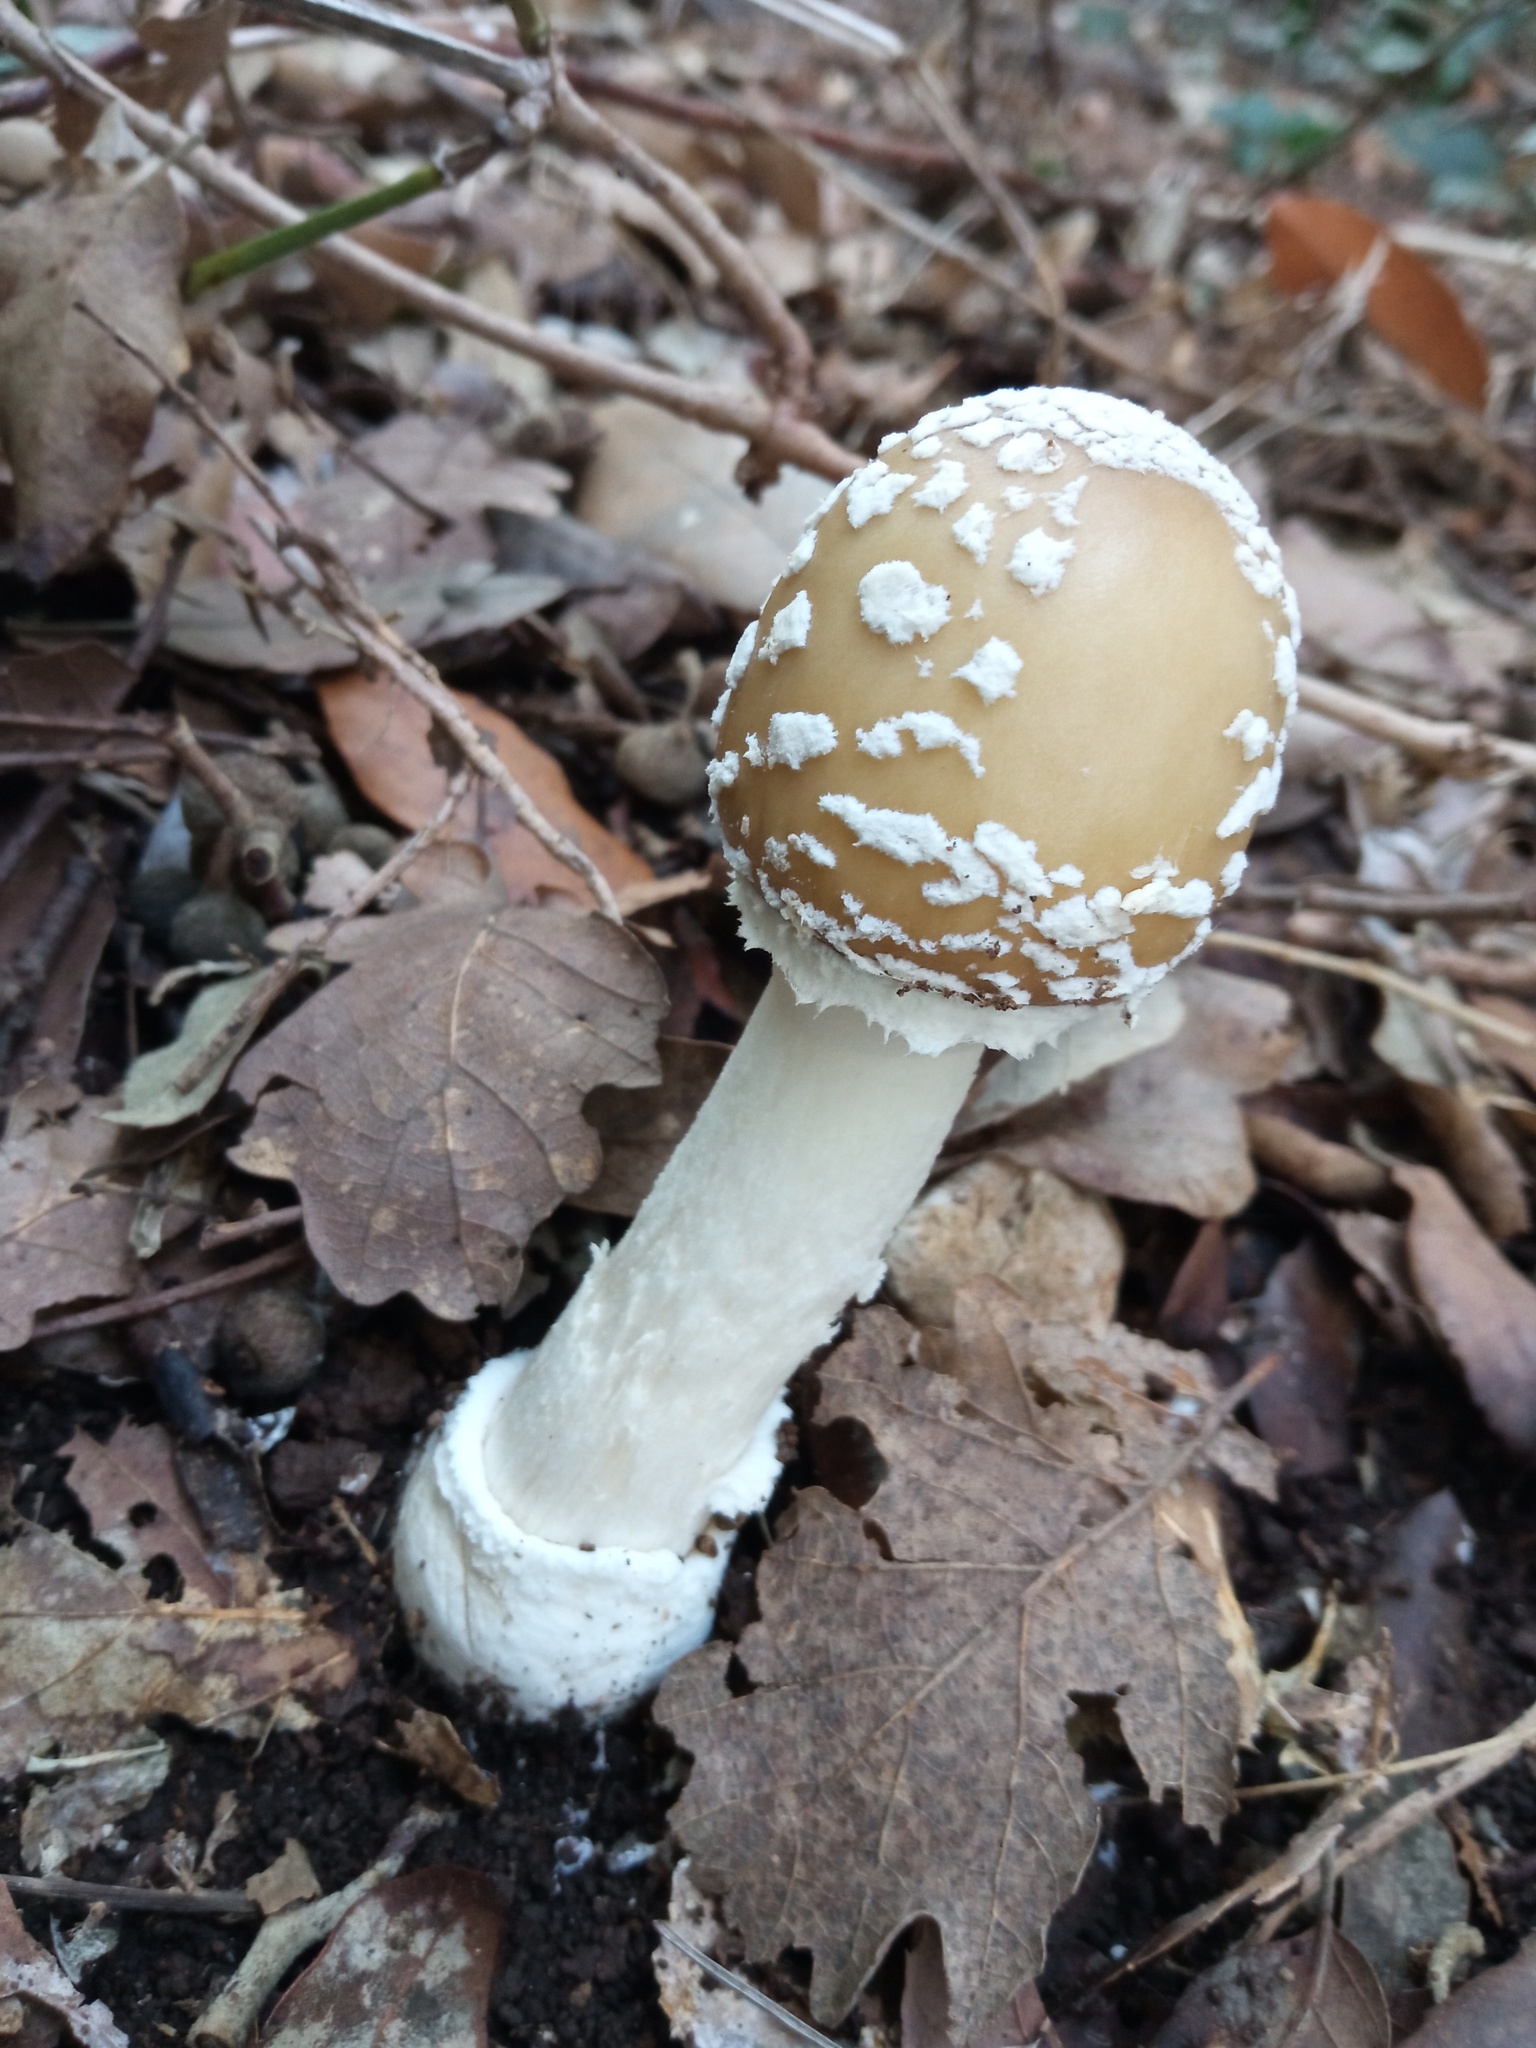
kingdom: Fungi
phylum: Basidiomycota
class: Agaricomycetes
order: Agaricales
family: Amanitaceae
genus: Amanita
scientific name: Amanita pantherina
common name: Panthercap
